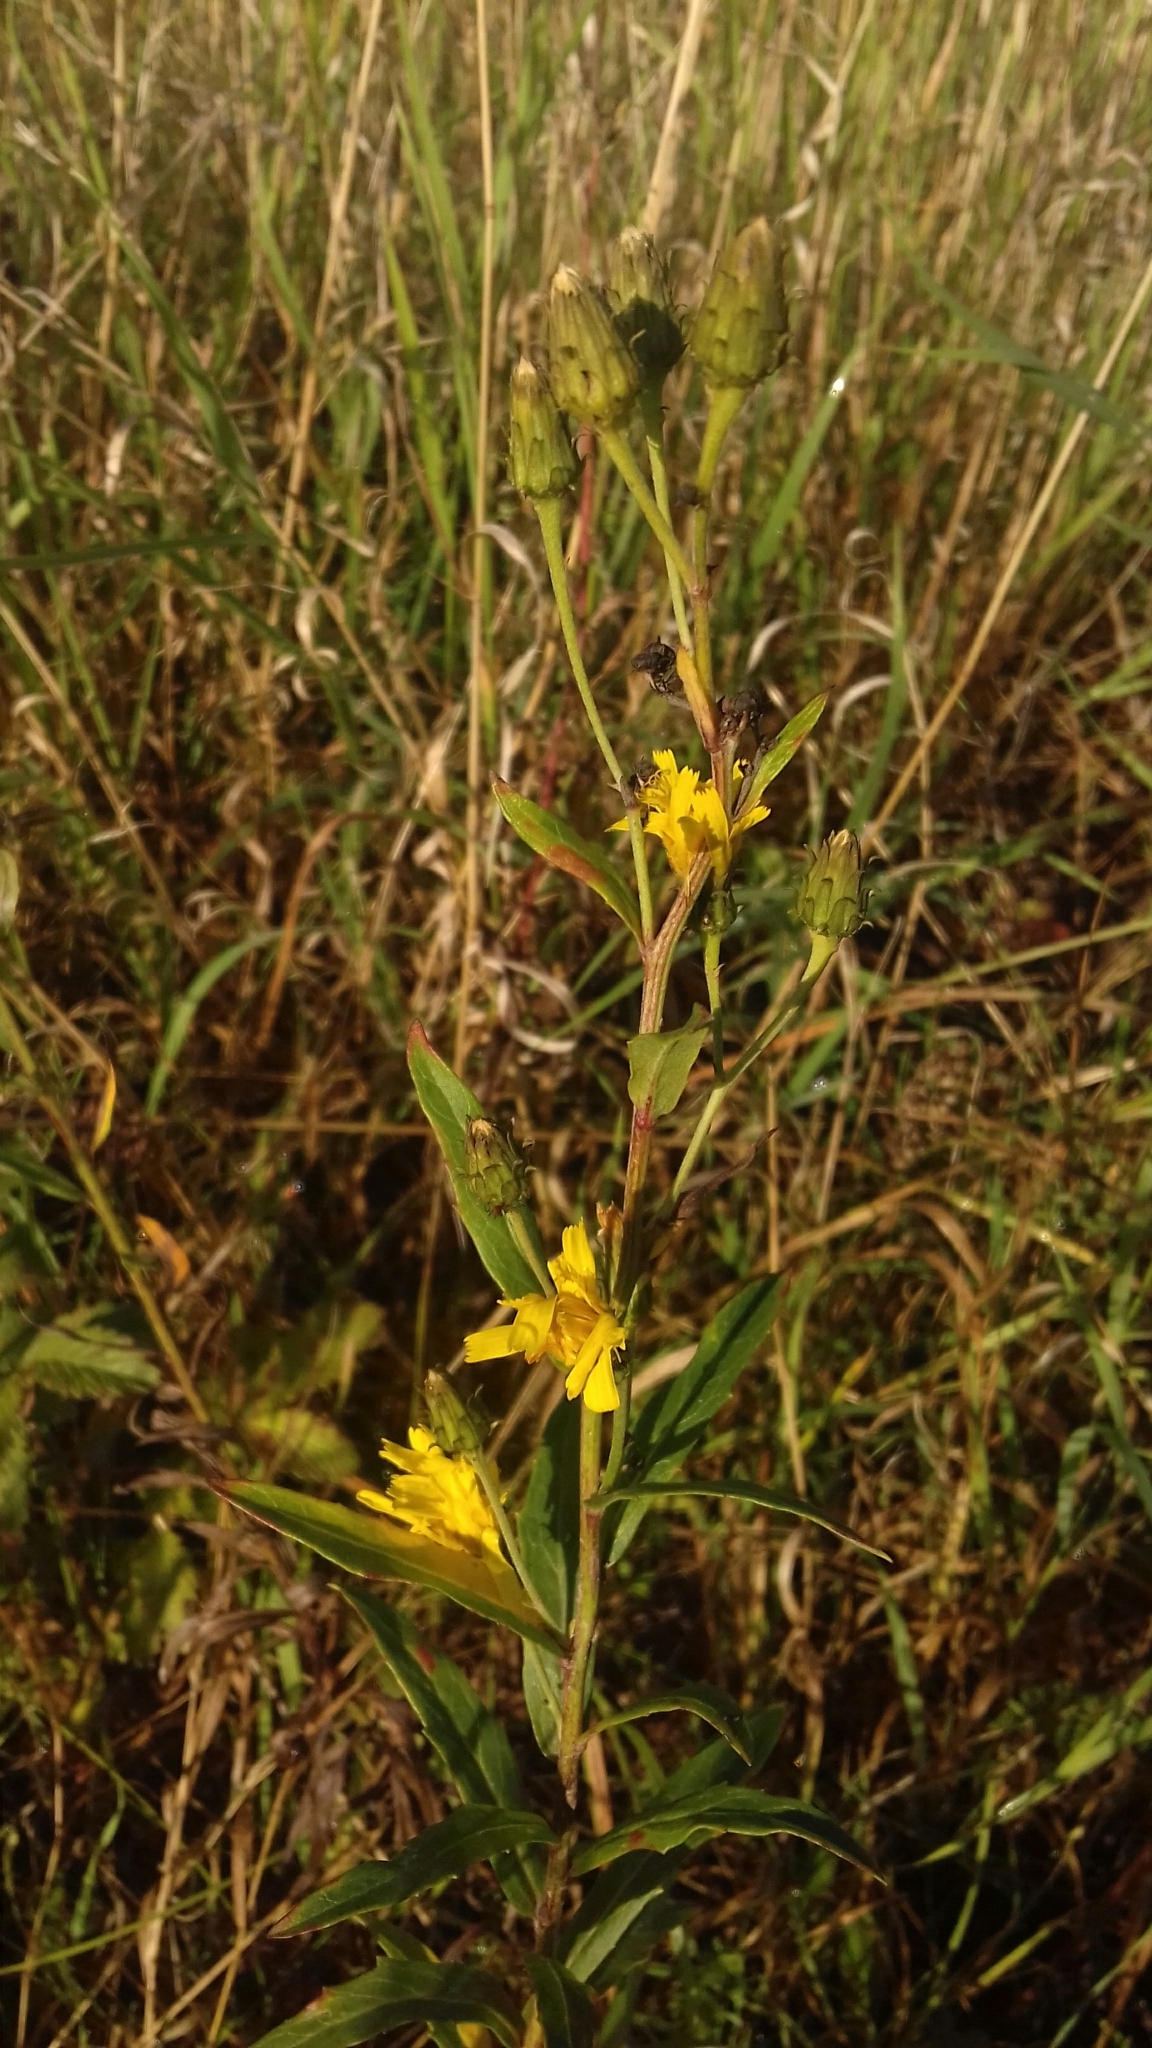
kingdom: Plantae
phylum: Tracheophyta
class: Magnoliopsida
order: Asterales
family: Asteraceae
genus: Hieracium
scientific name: Hieracium umbellatum
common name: Northern hawkweed
